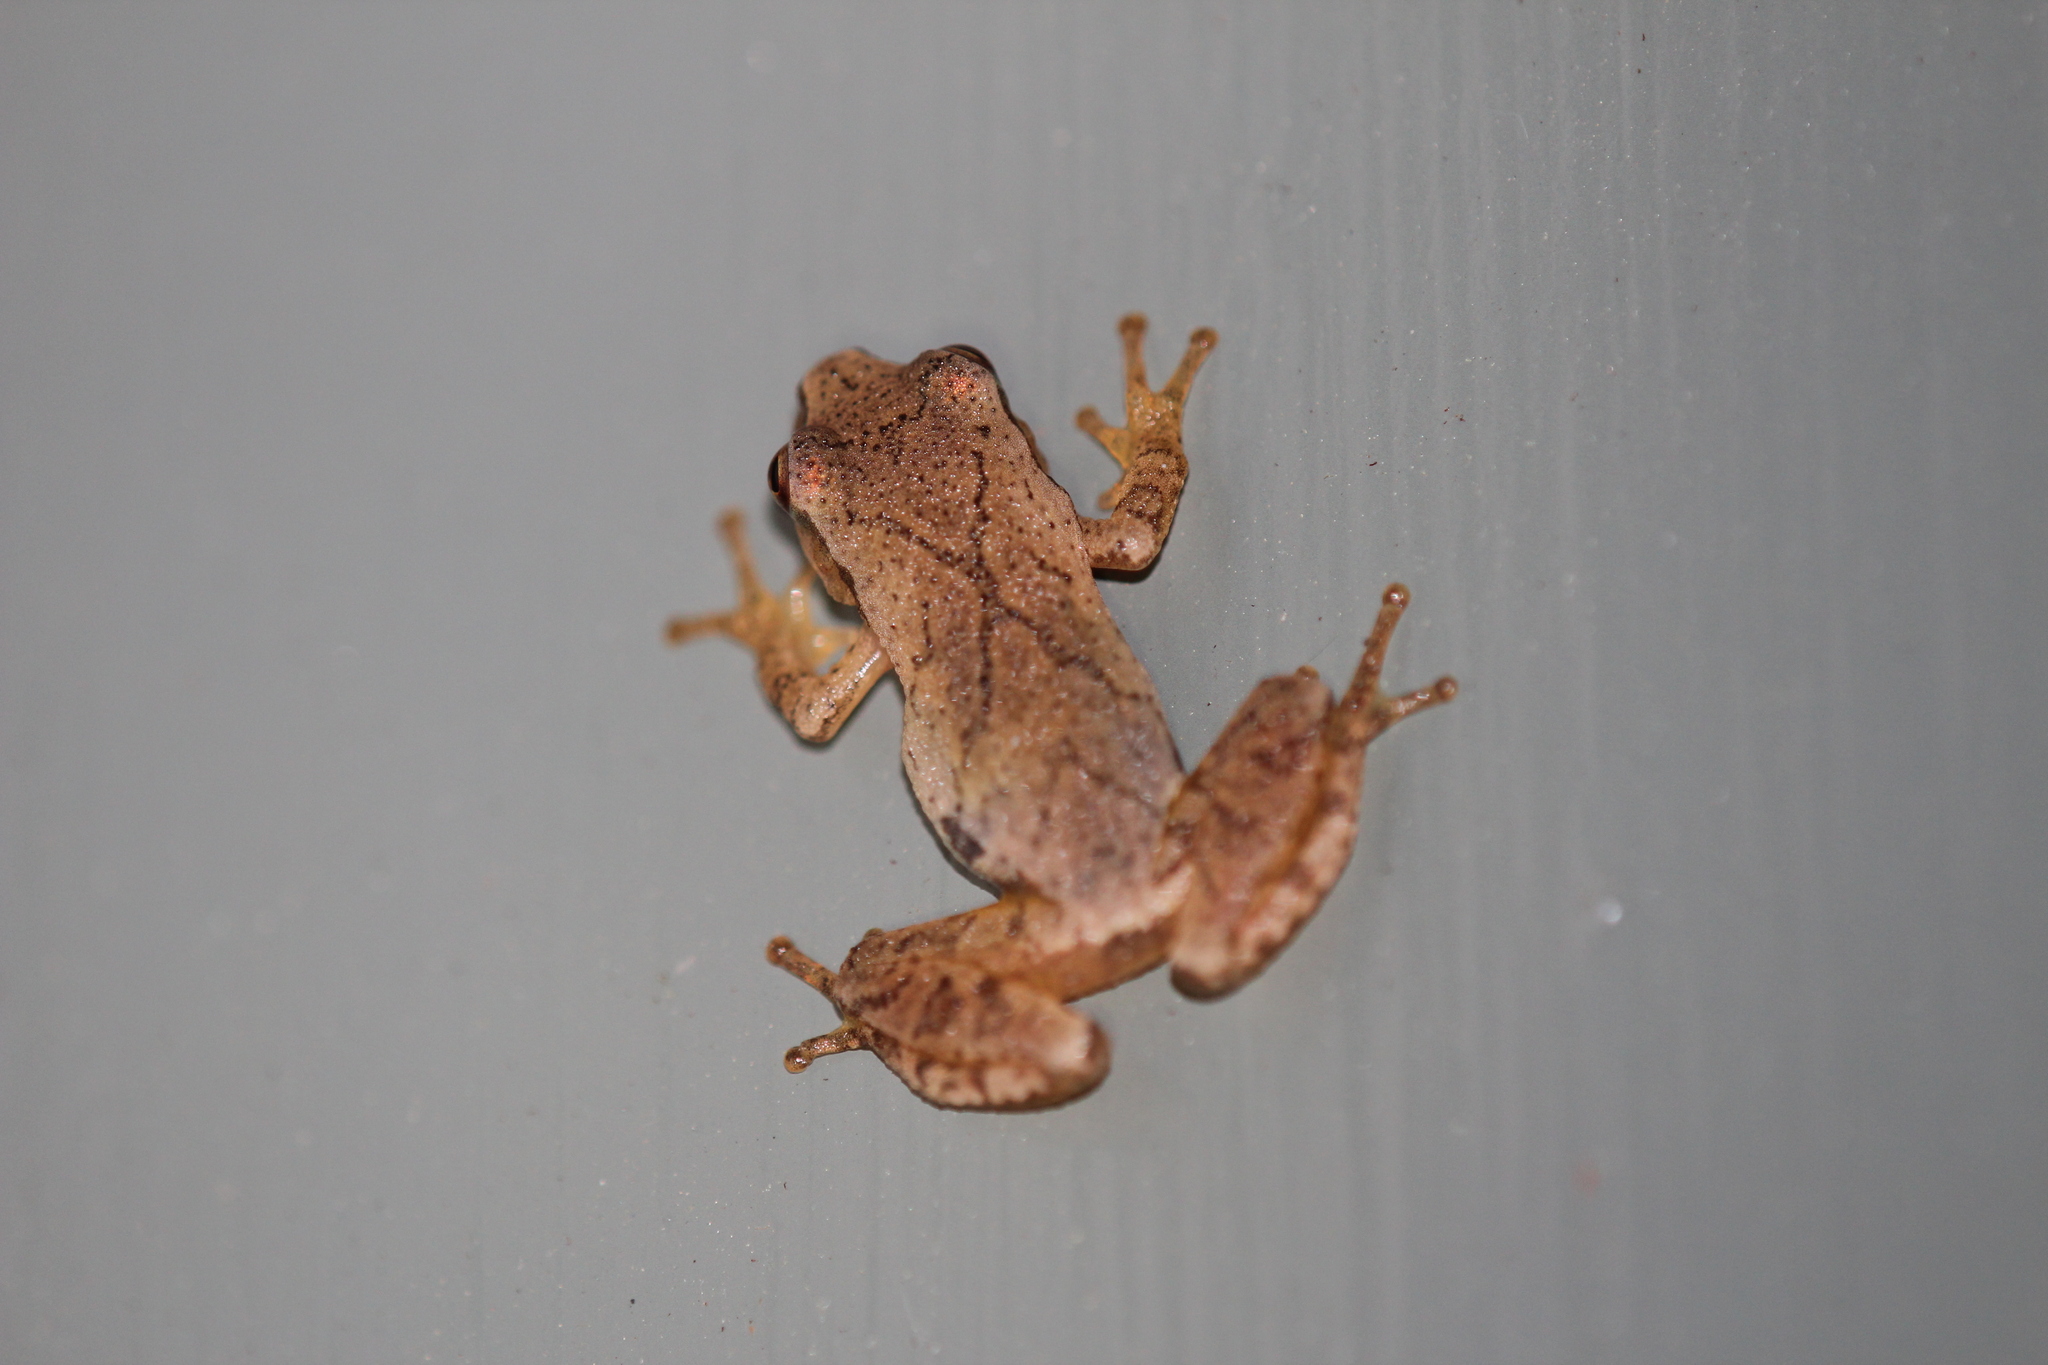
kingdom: Animalia
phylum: Chordata
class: Amphibia
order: Anura
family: Hylidae
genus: Pseudacris
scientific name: Pseudacris crucifer
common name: Spring peeper
